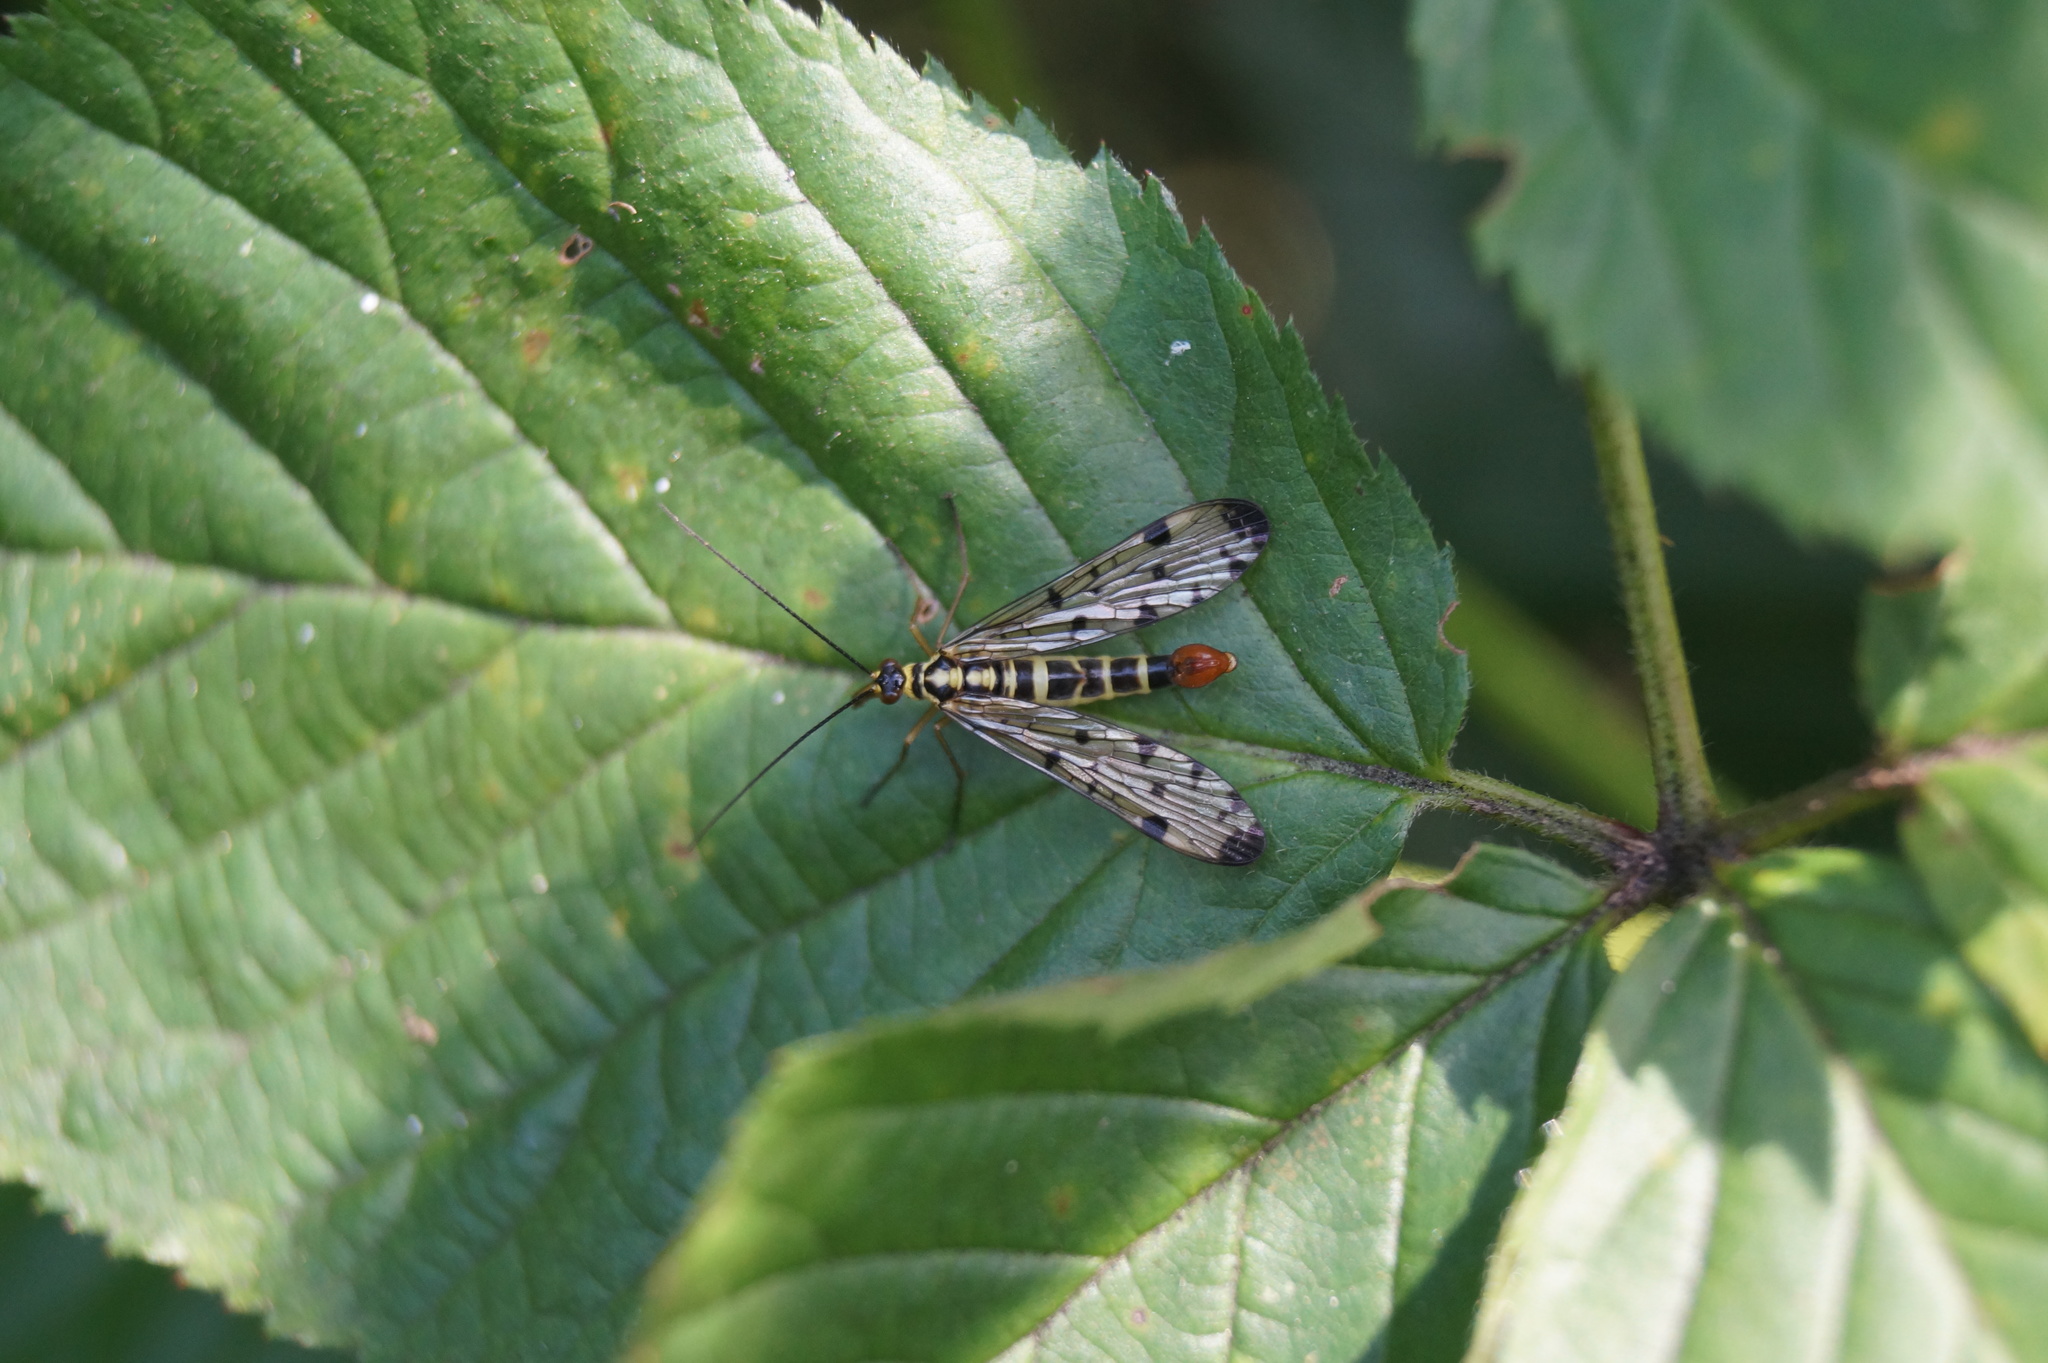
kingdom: Animalia
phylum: Arthropoda
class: Insecta
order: Mecoptera
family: Panorpidae
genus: Panorpa
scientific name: Panorpa germanica
